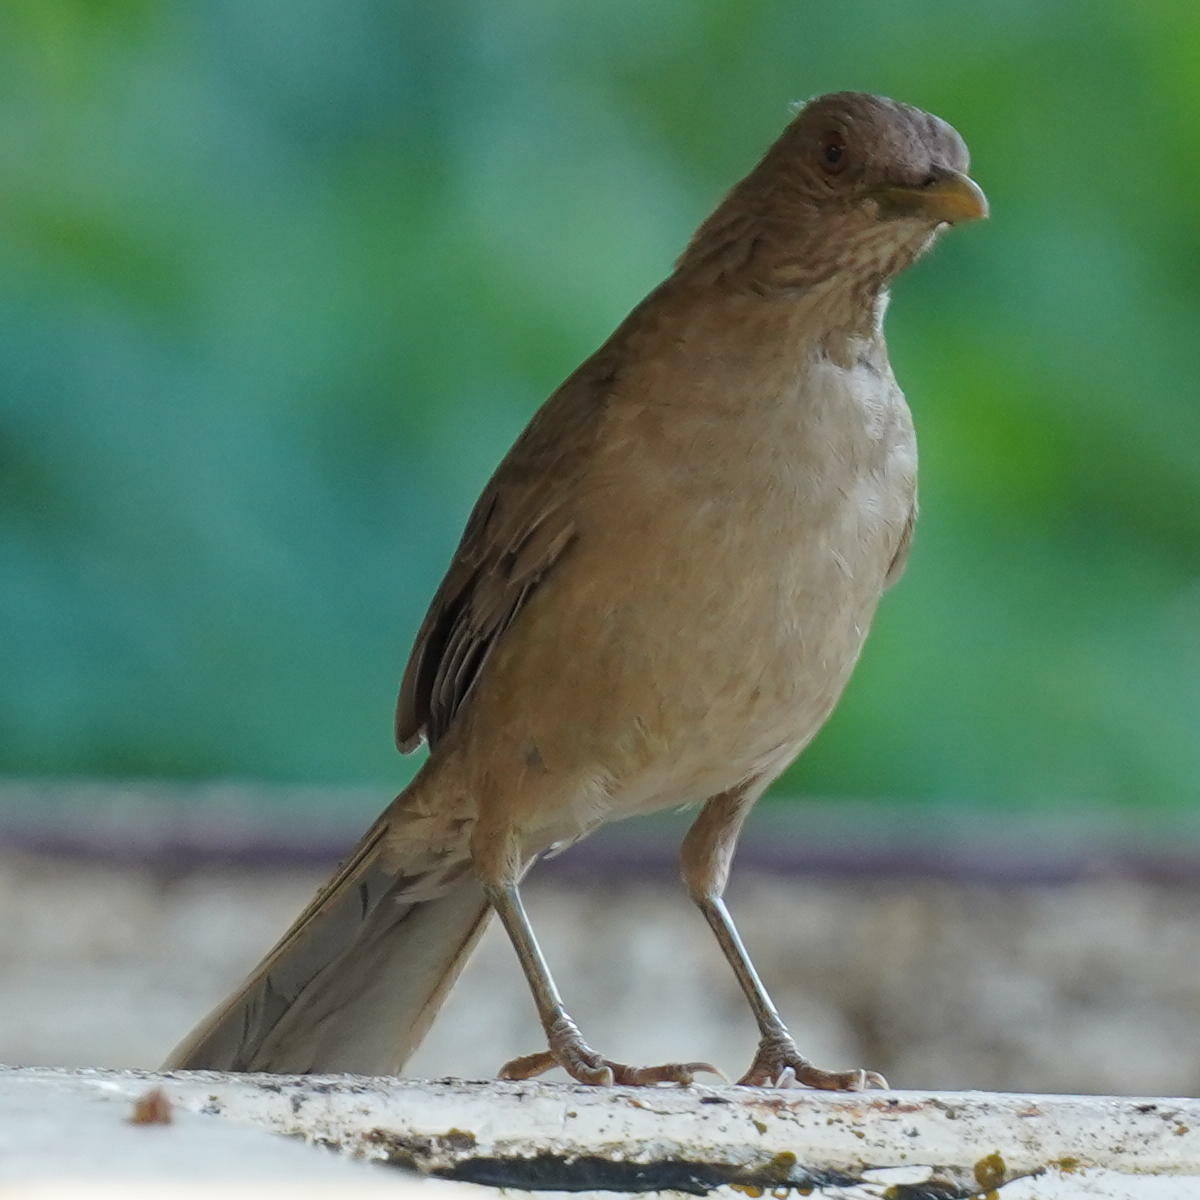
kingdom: Animalia
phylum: Chordata
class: Aves
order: Passeriformes
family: Turdidae
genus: Turdus
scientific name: Turdus grayi
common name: Clay-colored thrush
